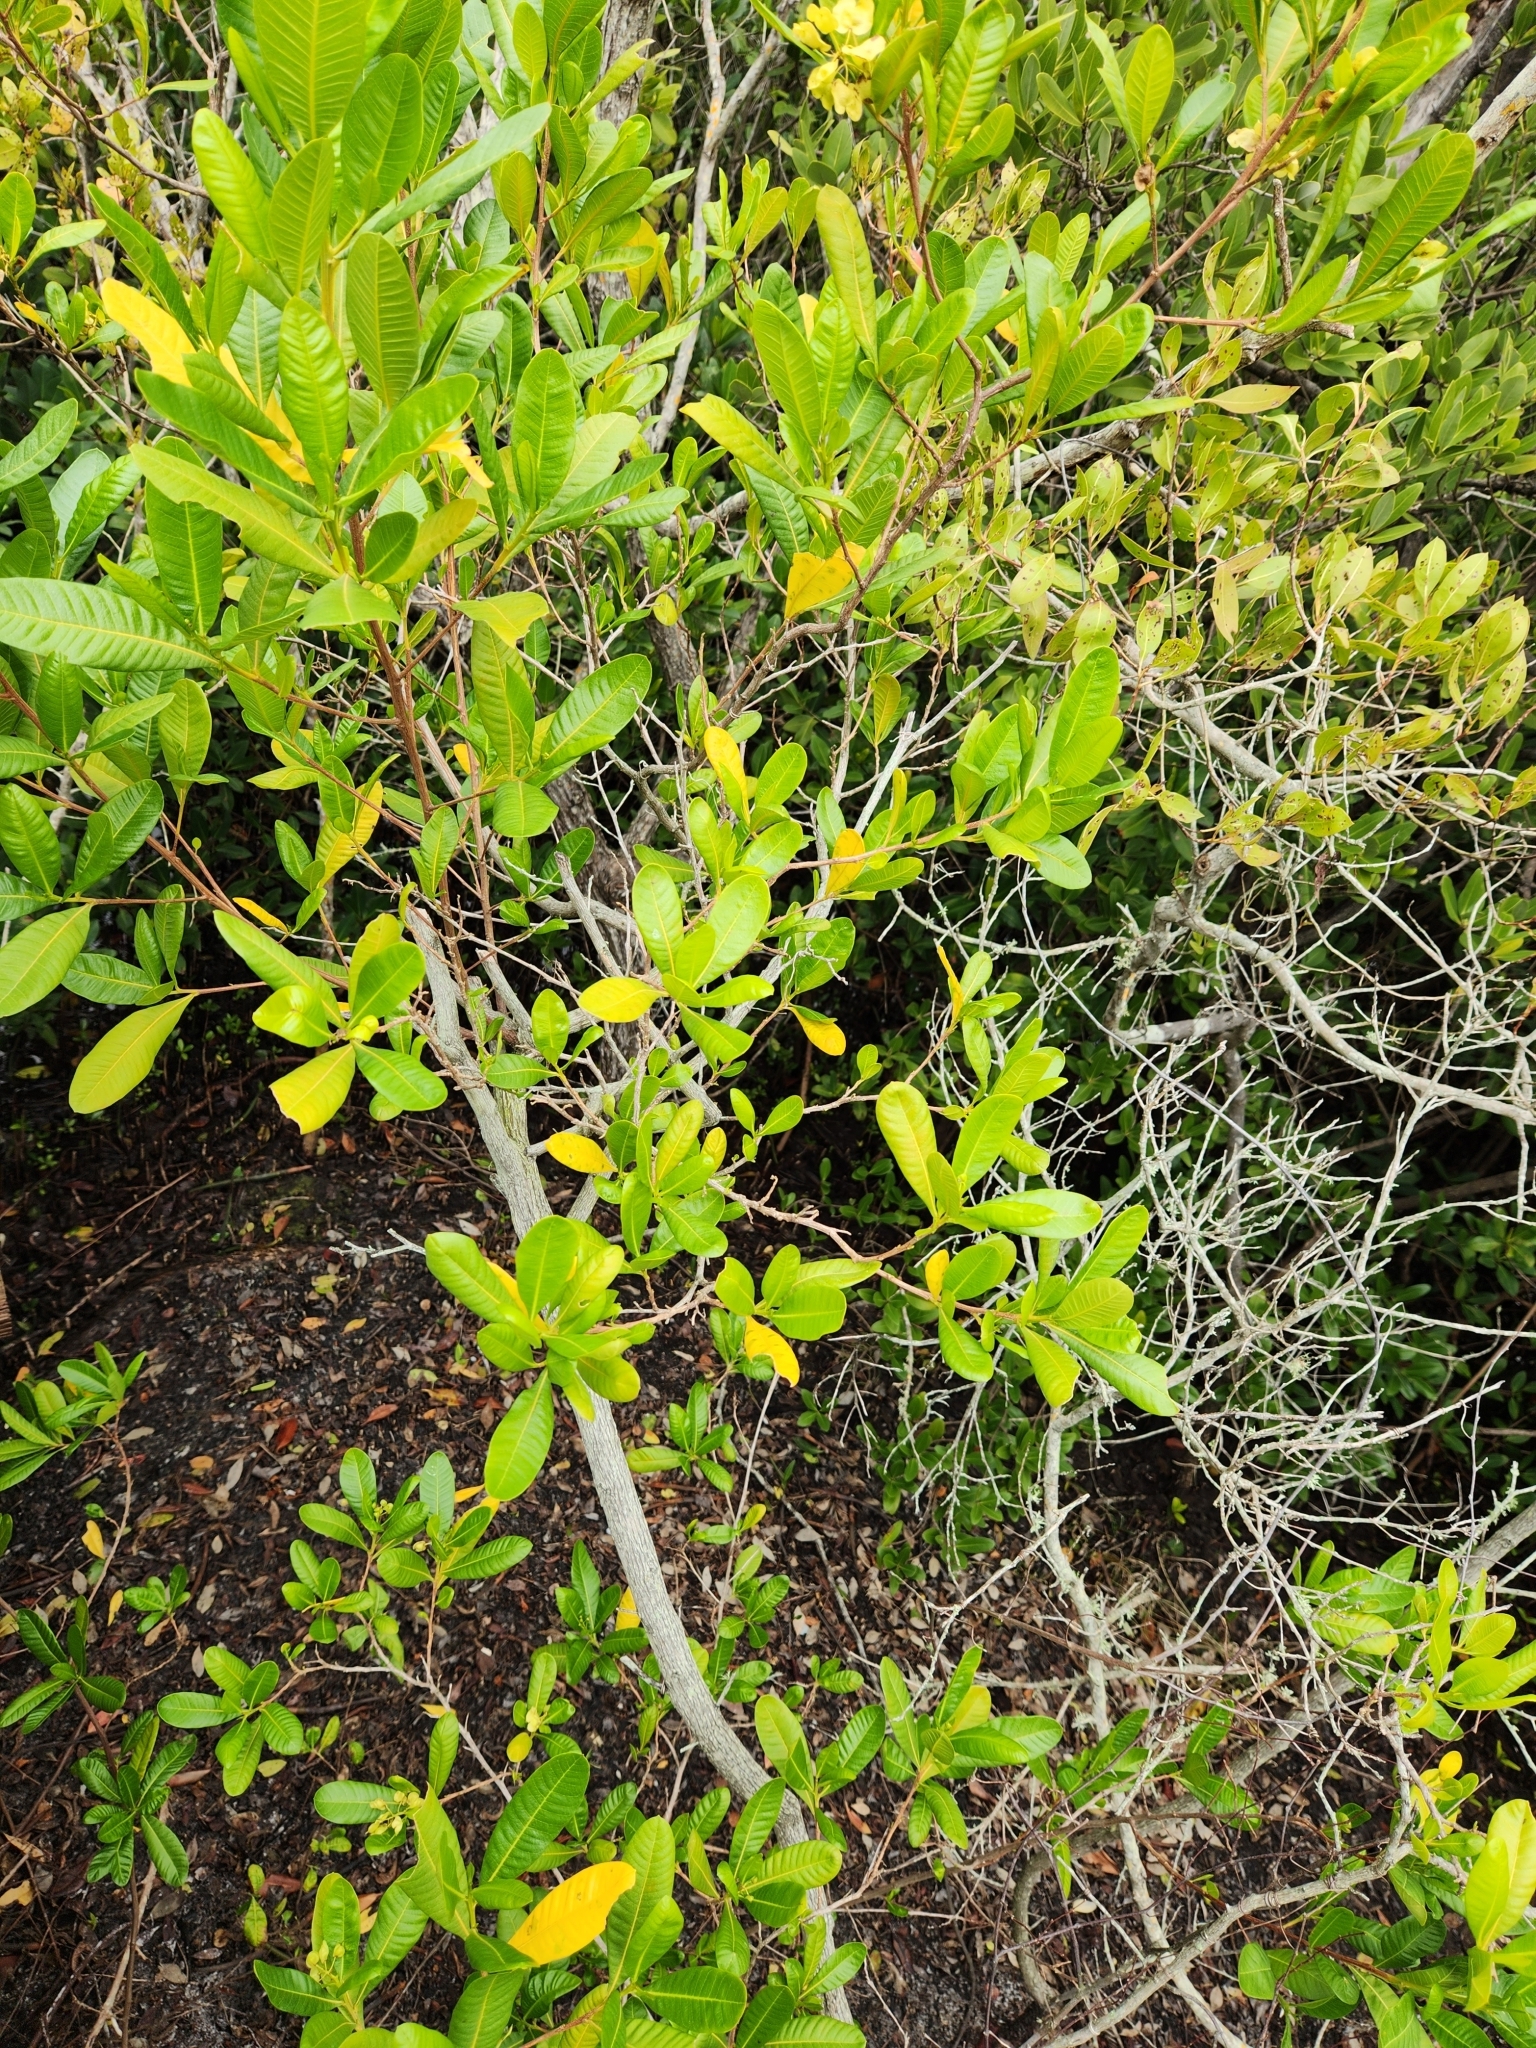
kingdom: Plantae
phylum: Tracheophyta
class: Magnoliopsida
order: Sapindales
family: Sapindaceae
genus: Dodonaea
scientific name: Dodonaea viscosa
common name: Hopbush
